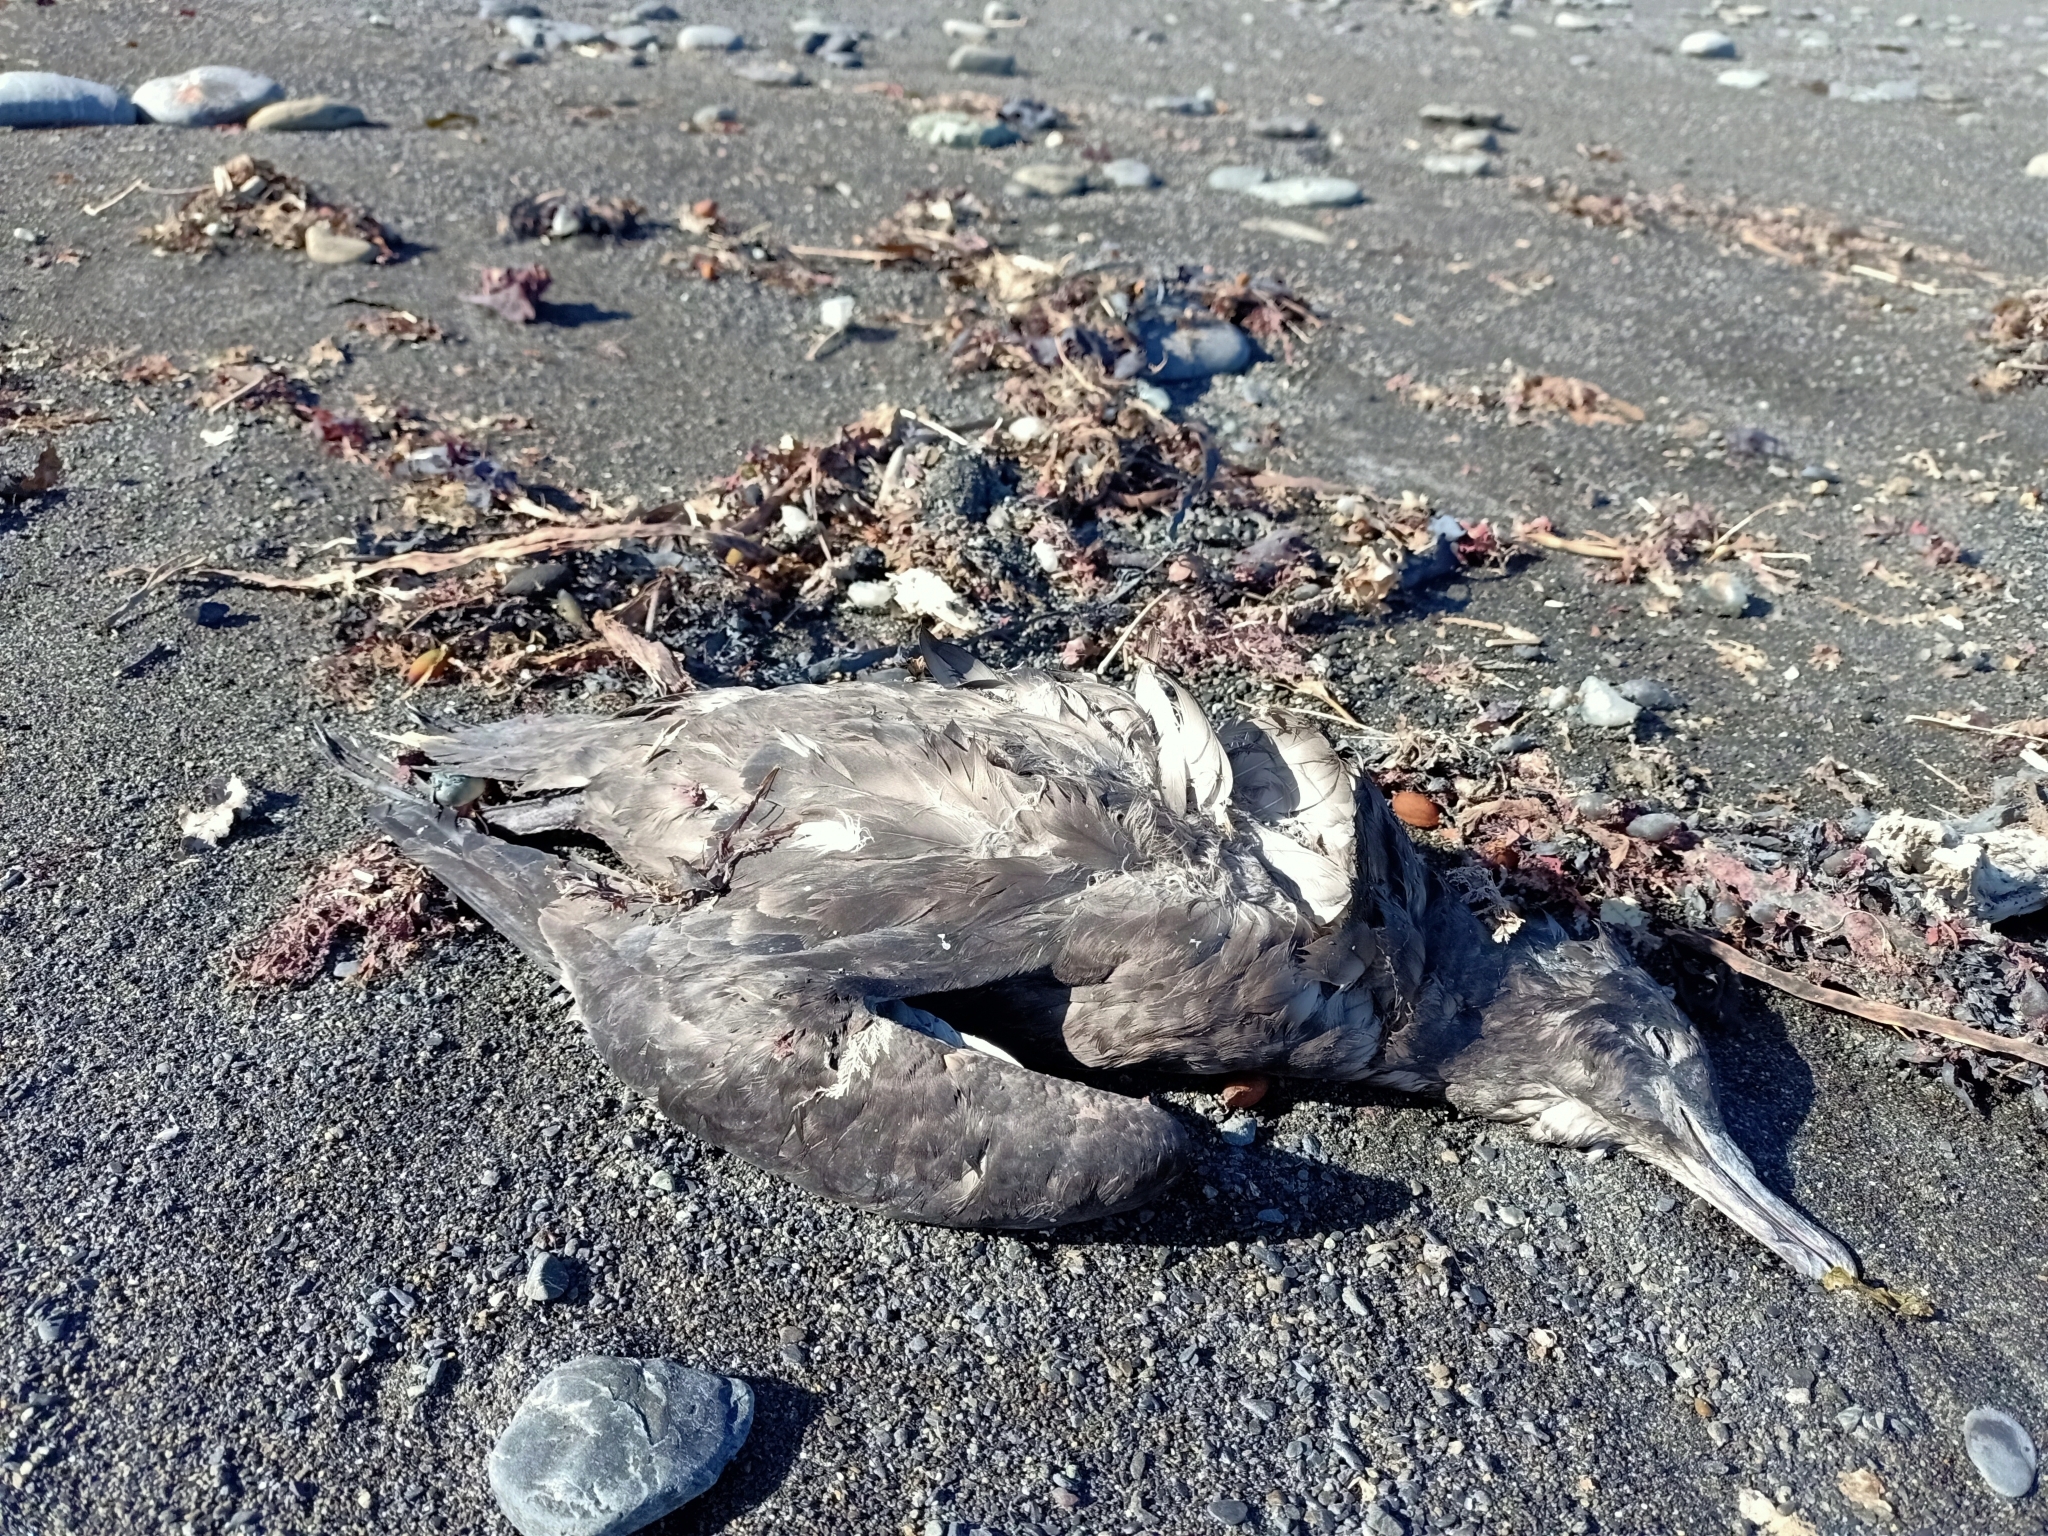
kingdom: Animalia
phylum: Chordata
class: Aves
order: Procellariiformes
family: Procellariidae
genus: Puffinus
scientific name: Puffinus griseus
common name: Sooty shearwater
